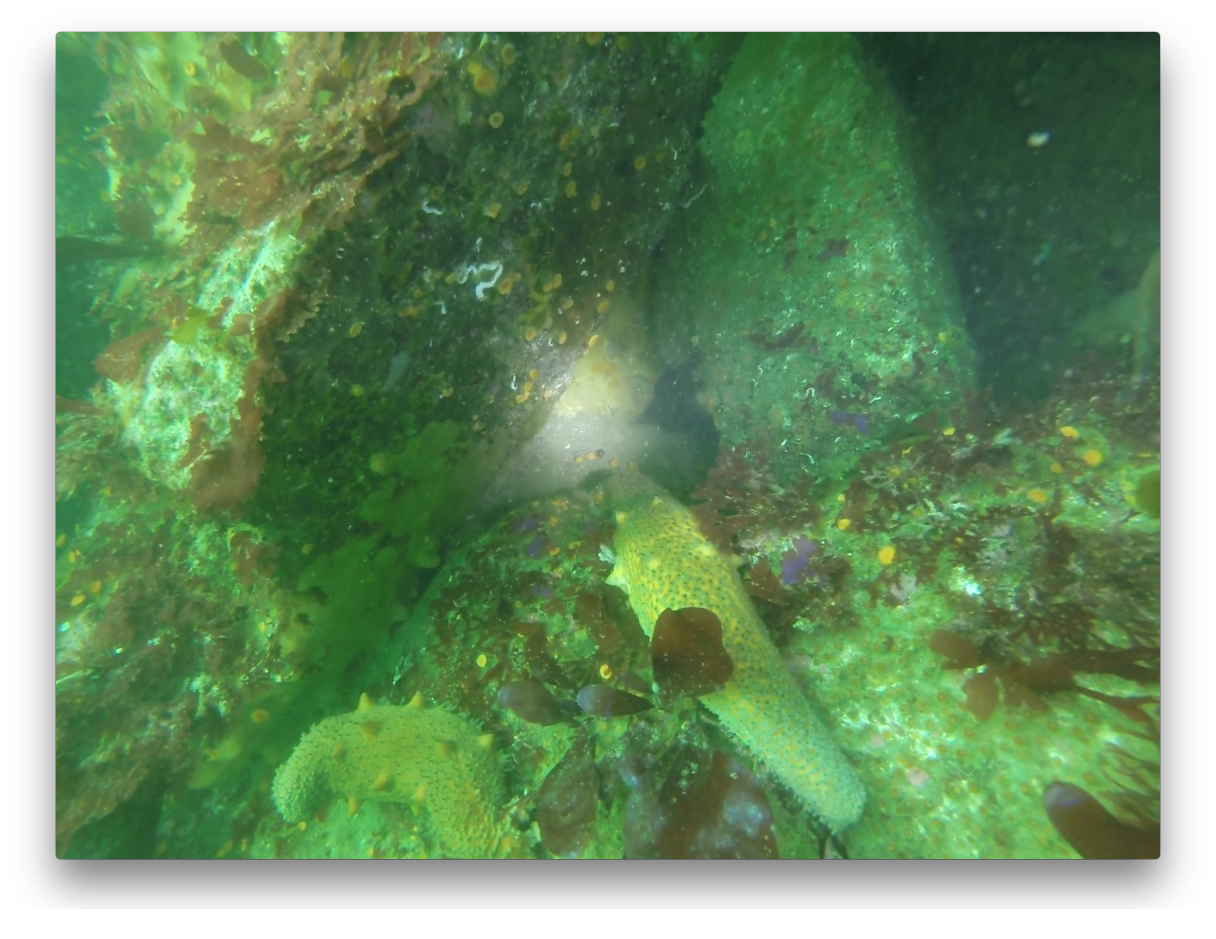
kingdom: Animalia
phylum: Echinodermata
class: Holothuroidea
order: Synallactida
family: Stichopodidae
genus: Apostichopus
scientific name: Apostichopus parvimensis
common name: Warty sea cucumber
